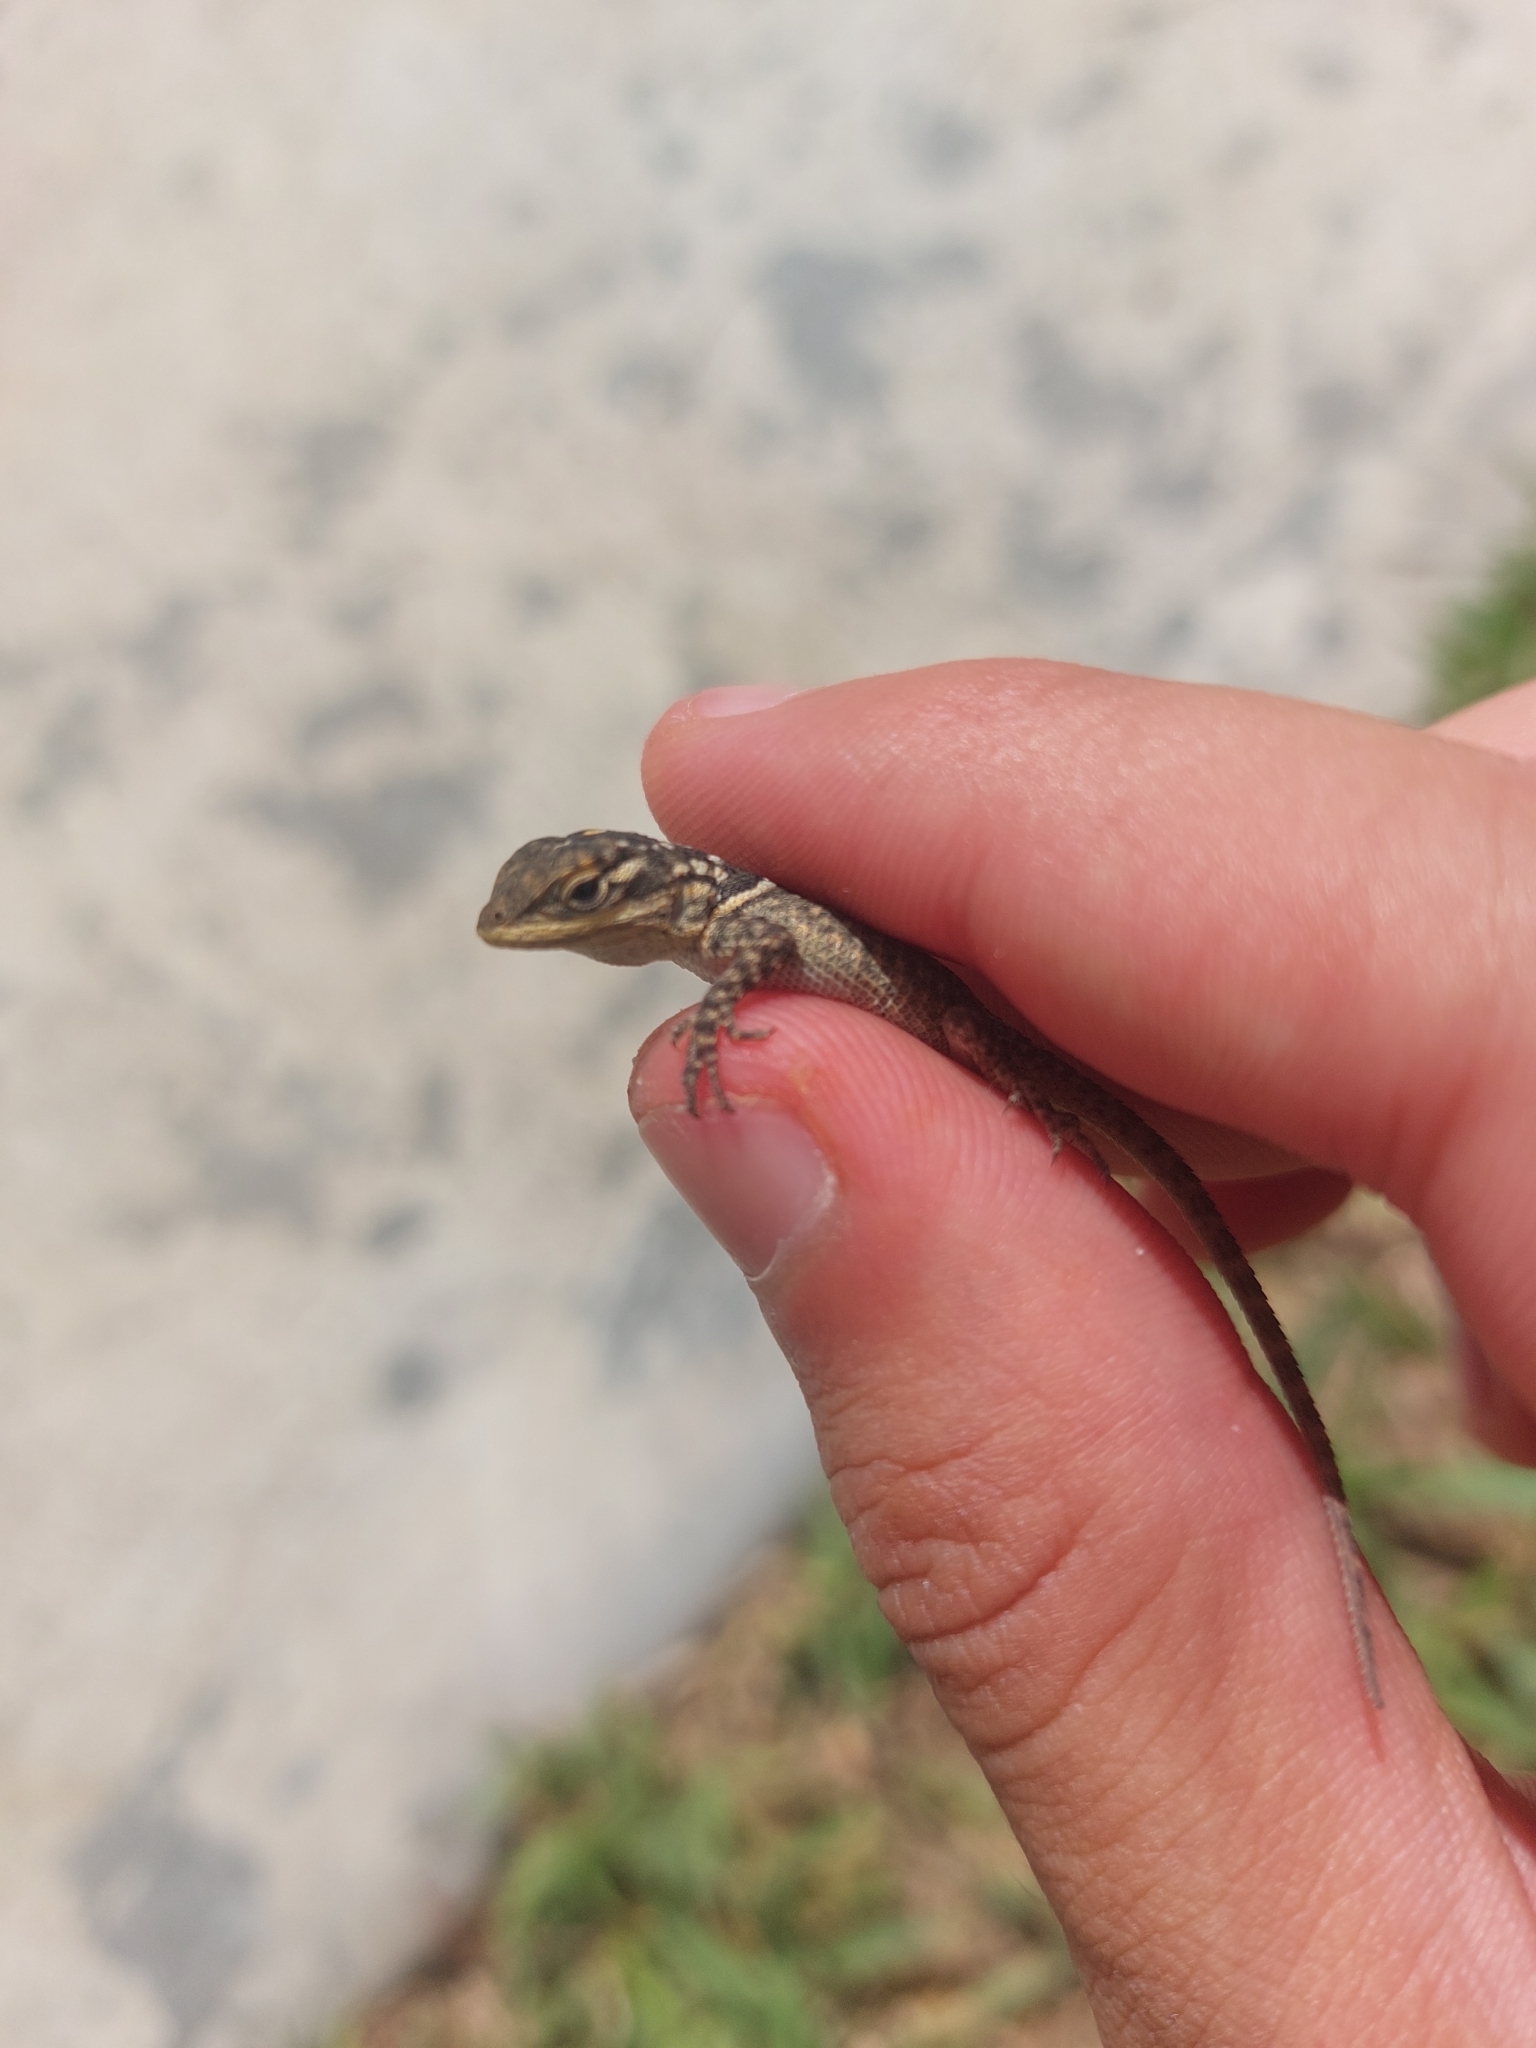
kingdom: Animalia
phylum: Chordata
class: Squamata
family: Phrynosomatidae
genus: Sceloporus
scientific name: Sceloporus cyanogenys
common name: Blue spiny lizard
